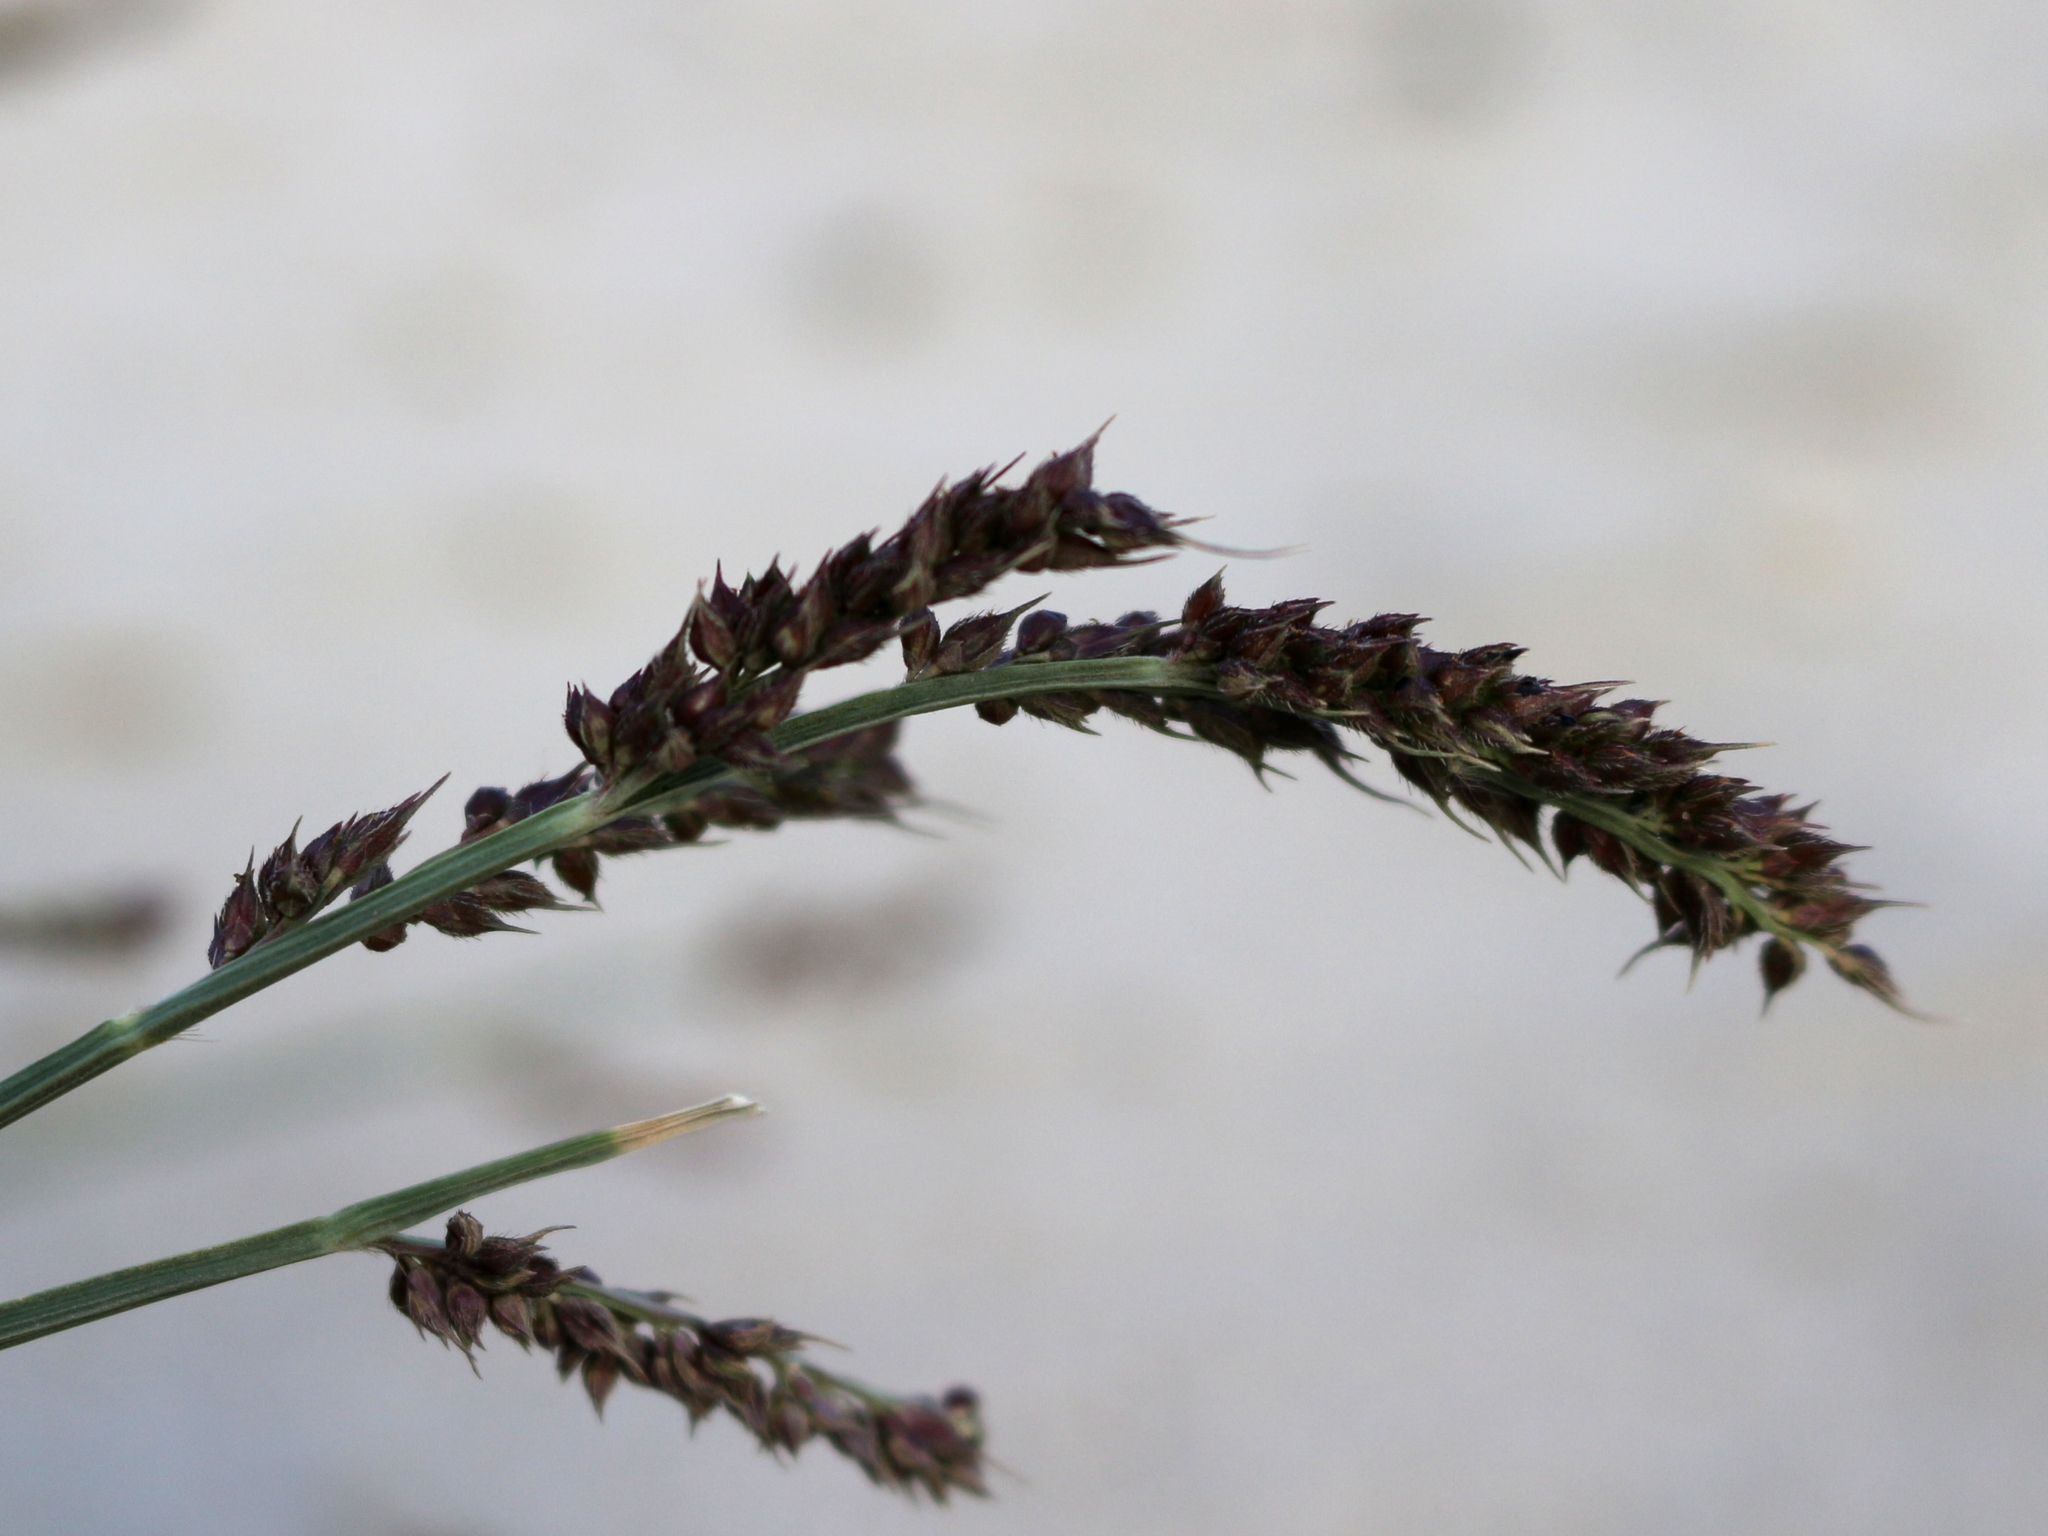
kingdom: Plantae
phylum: Tracheophyta
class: Liliopsida
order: Poales
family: Poaceae
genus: Echinochloa
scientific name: Echinochloa crus-galli
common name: Cockspur
